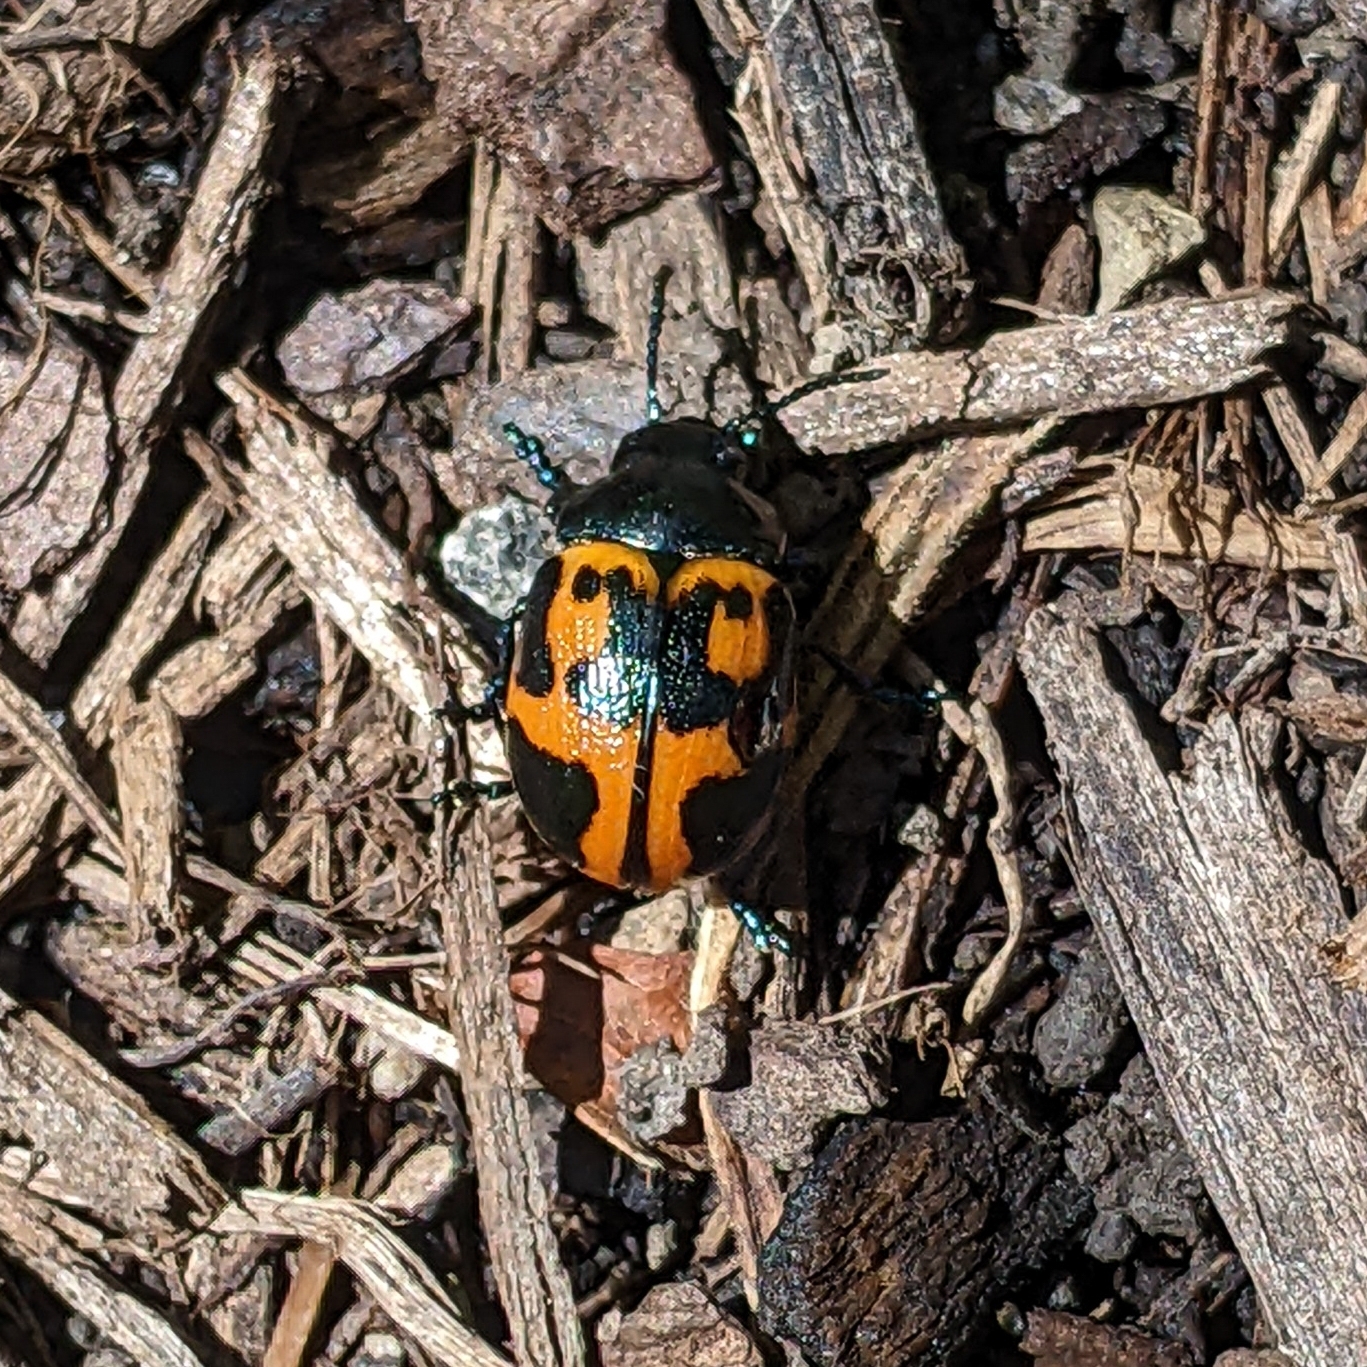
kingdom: Animalia
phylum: Arthropoda
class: Insecta
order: Coleoptera
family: Chrysomelidae
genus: Labidomera
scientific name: Labidomera clivicollis
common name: Swamp milkweed leaf beetle
